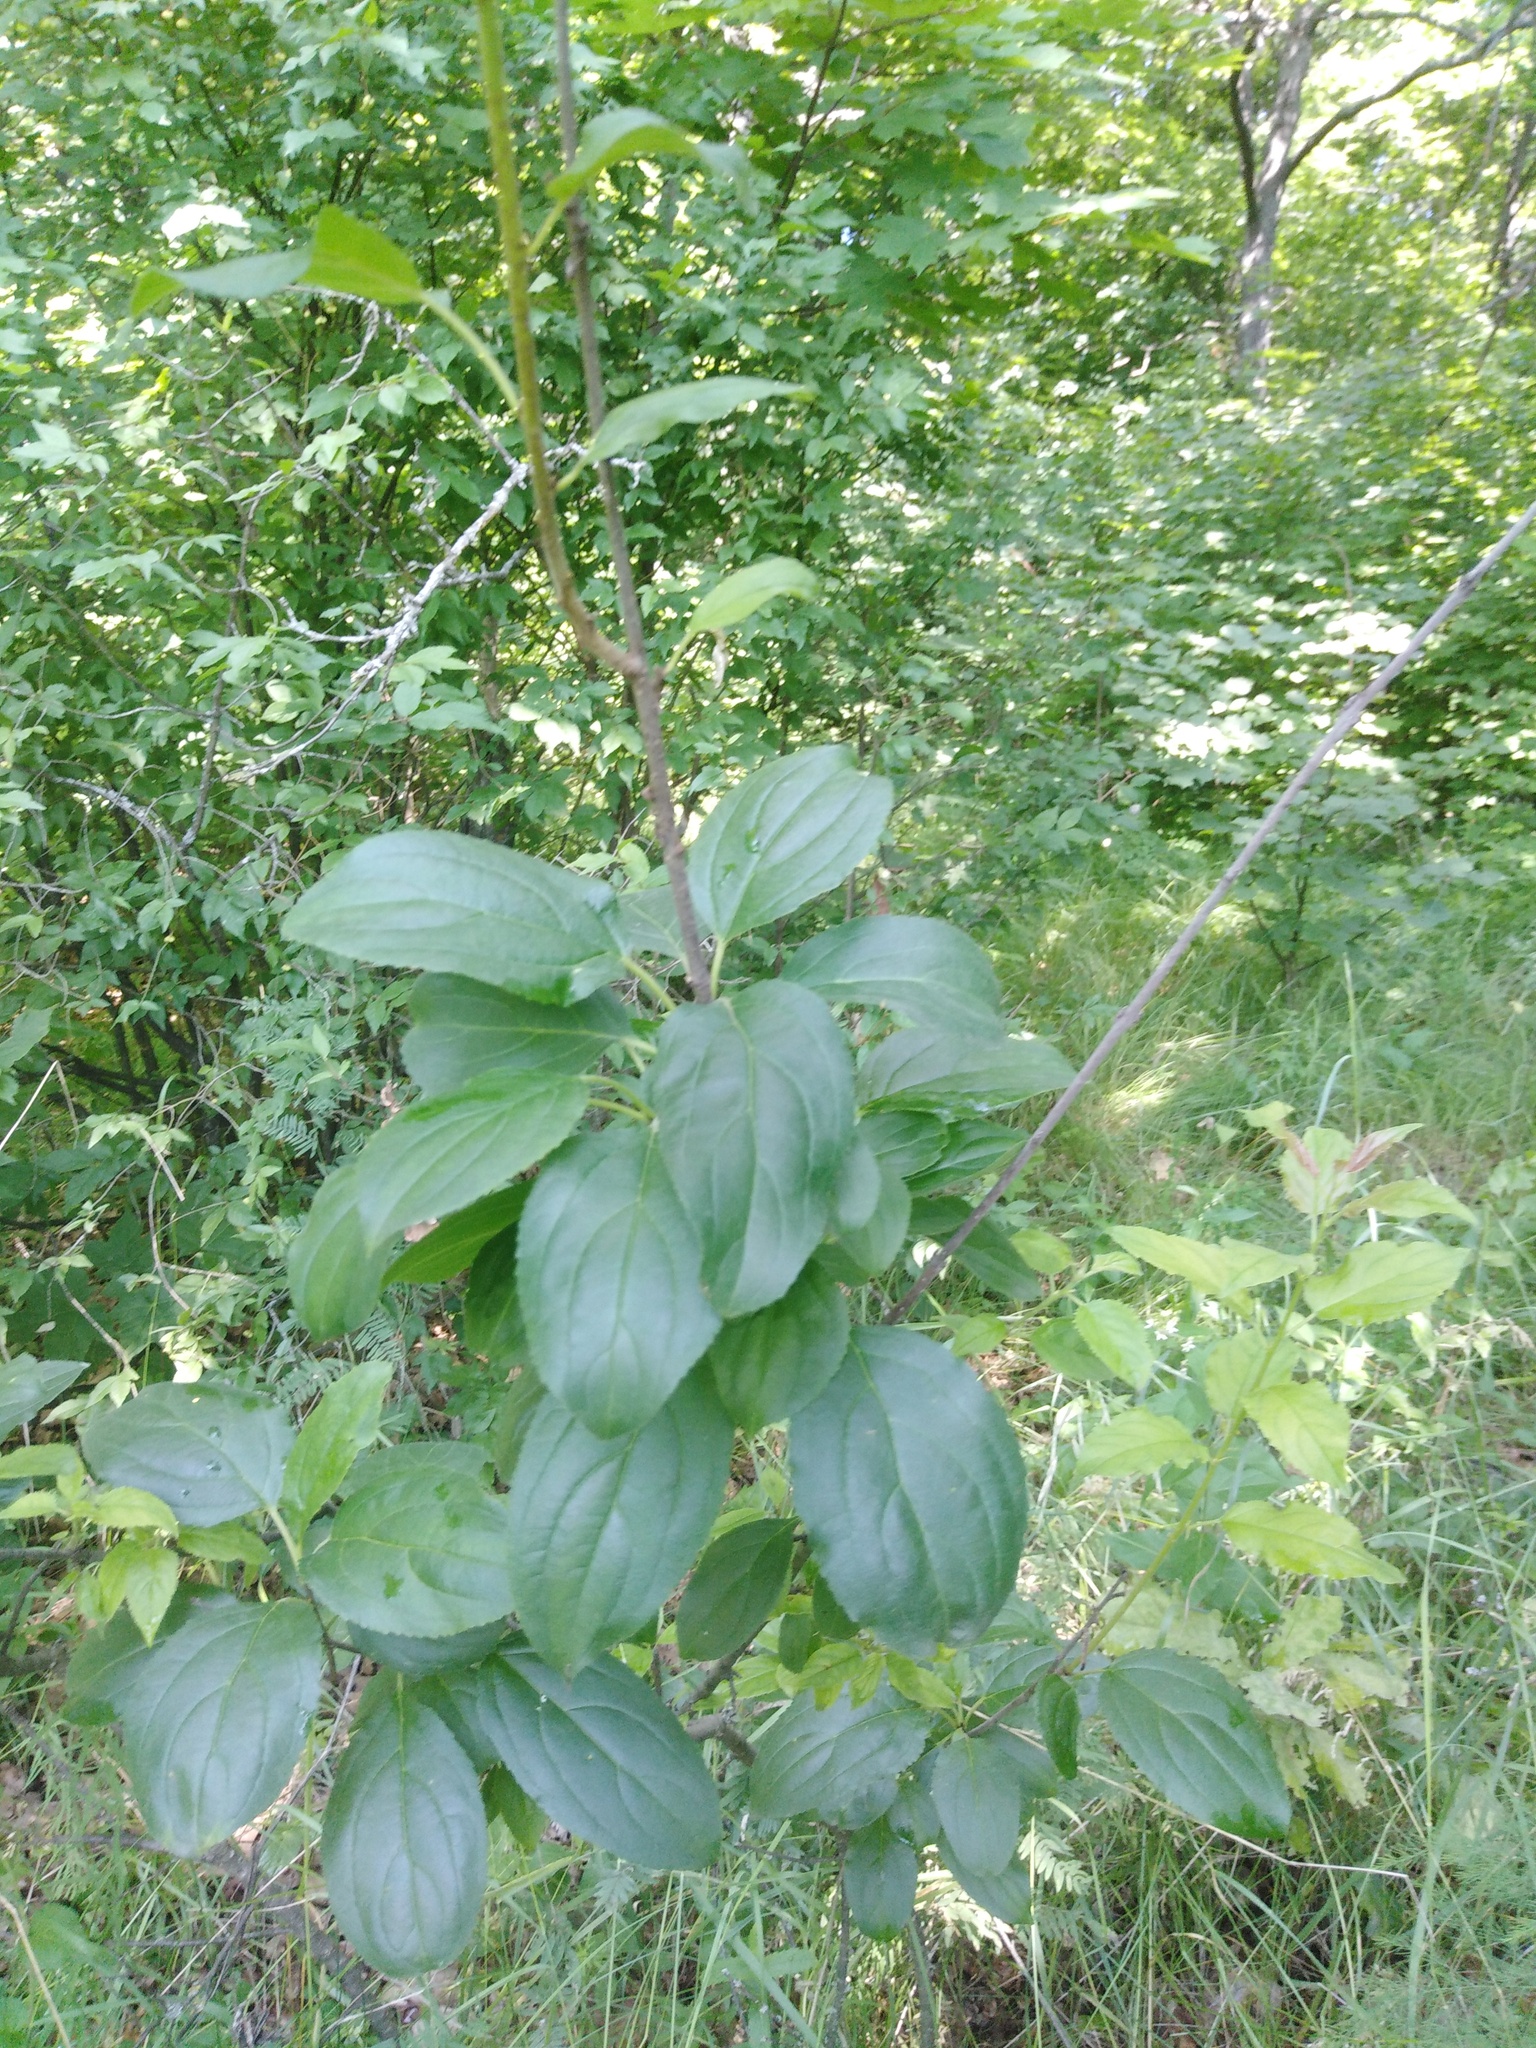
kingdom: Plantae
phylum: Tracheophyta
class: Magnoliopsida
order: Rosales
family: Rhamnaceae
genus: Rhamnus
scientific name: Rhamnus cathartica
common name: Common buckthorn
